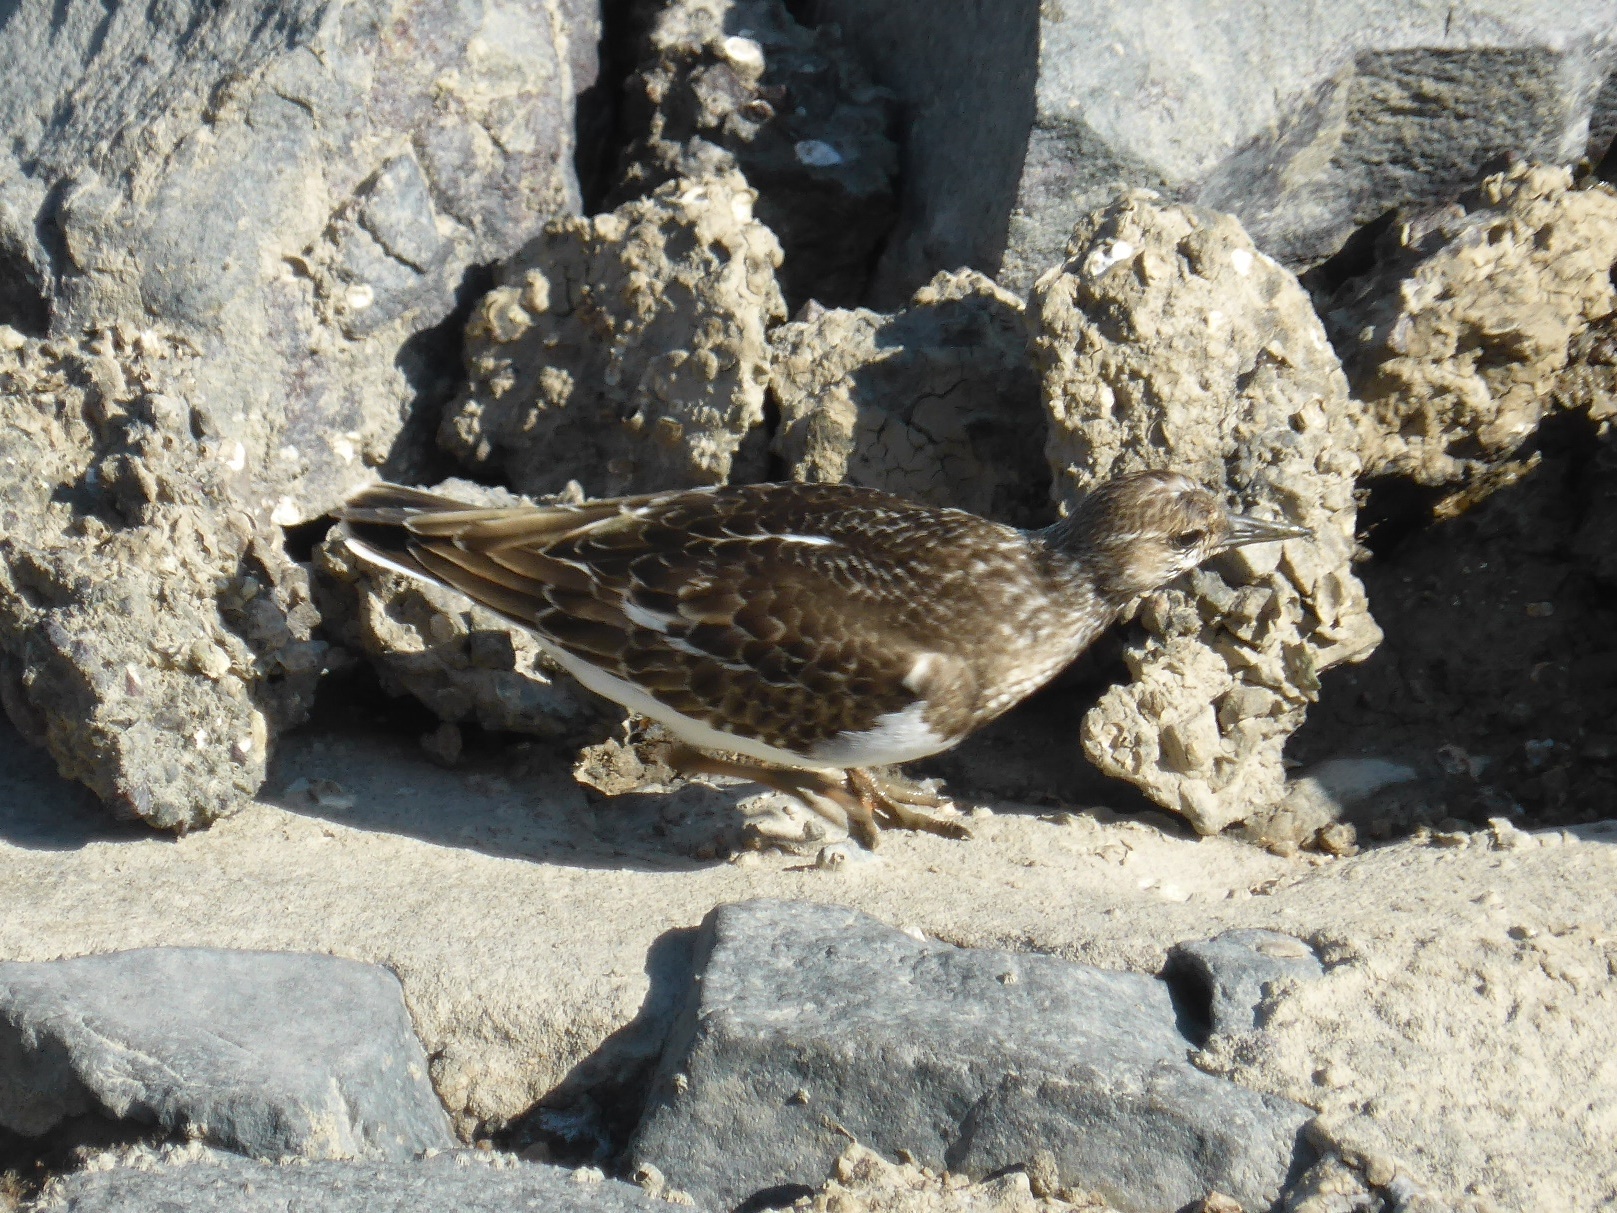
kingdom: Animalia
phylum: Chordata
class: Aves
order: Charadriiformes
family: Scolopacidae
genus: Arenaria
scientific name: Arenaria interpres
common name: Ruddy turnstone
